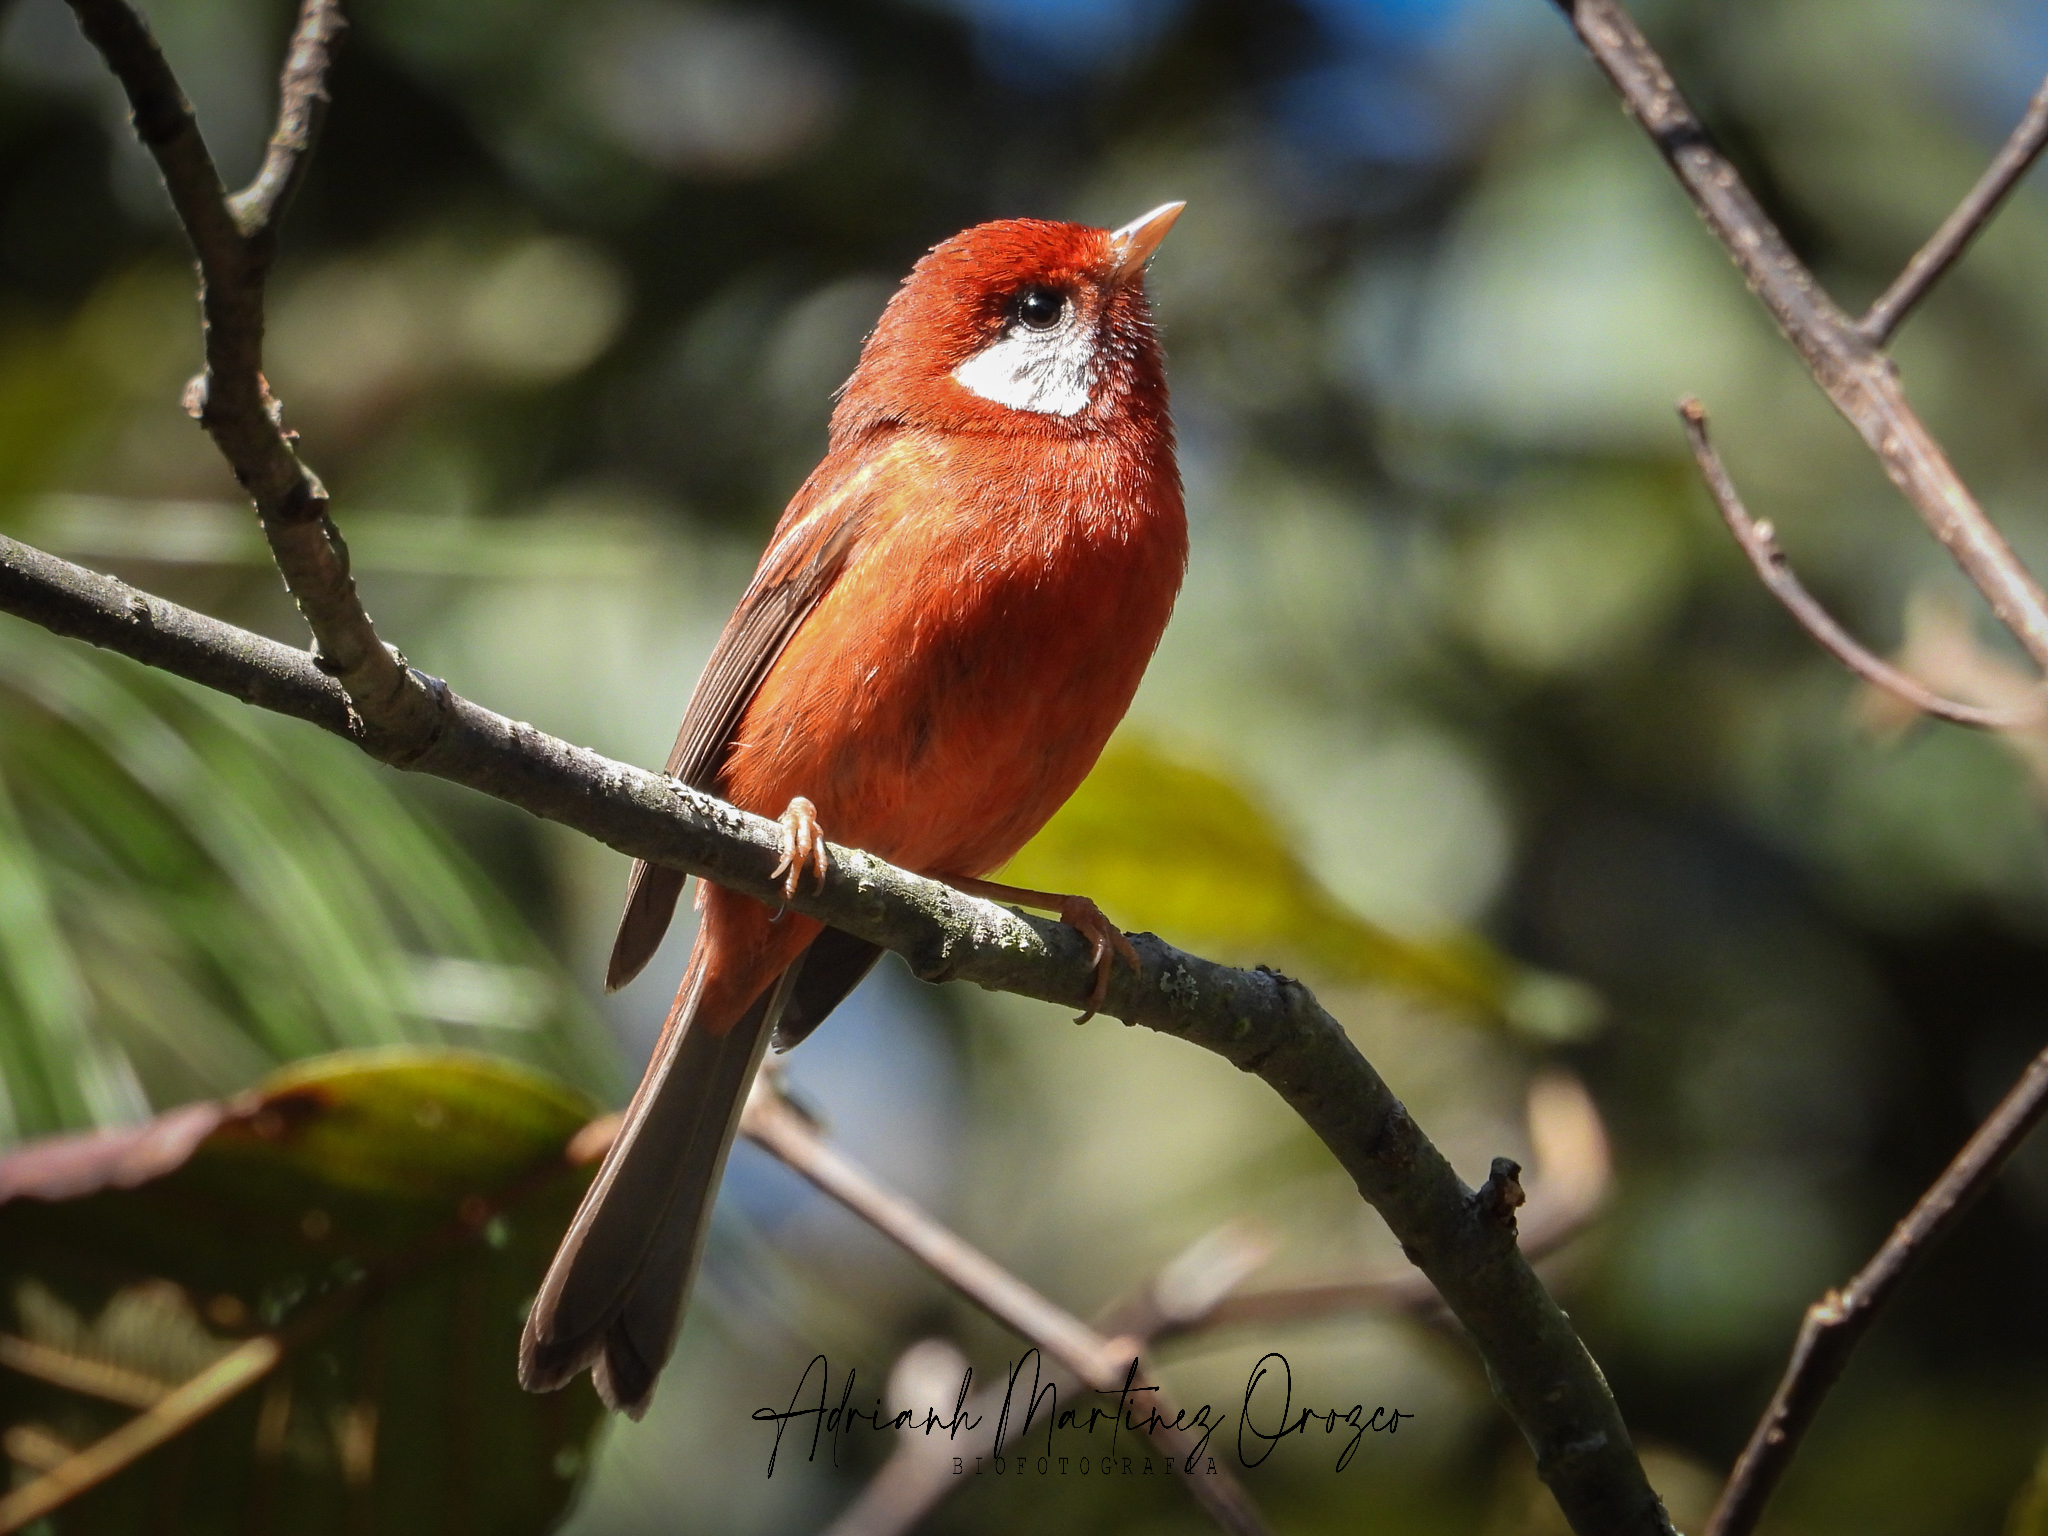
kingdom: Animalia
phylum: Chordata
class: Aves
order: Passeriformes
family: Parulidae
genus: Cardellina
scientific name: Cardellina rubra
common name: Red warbler
